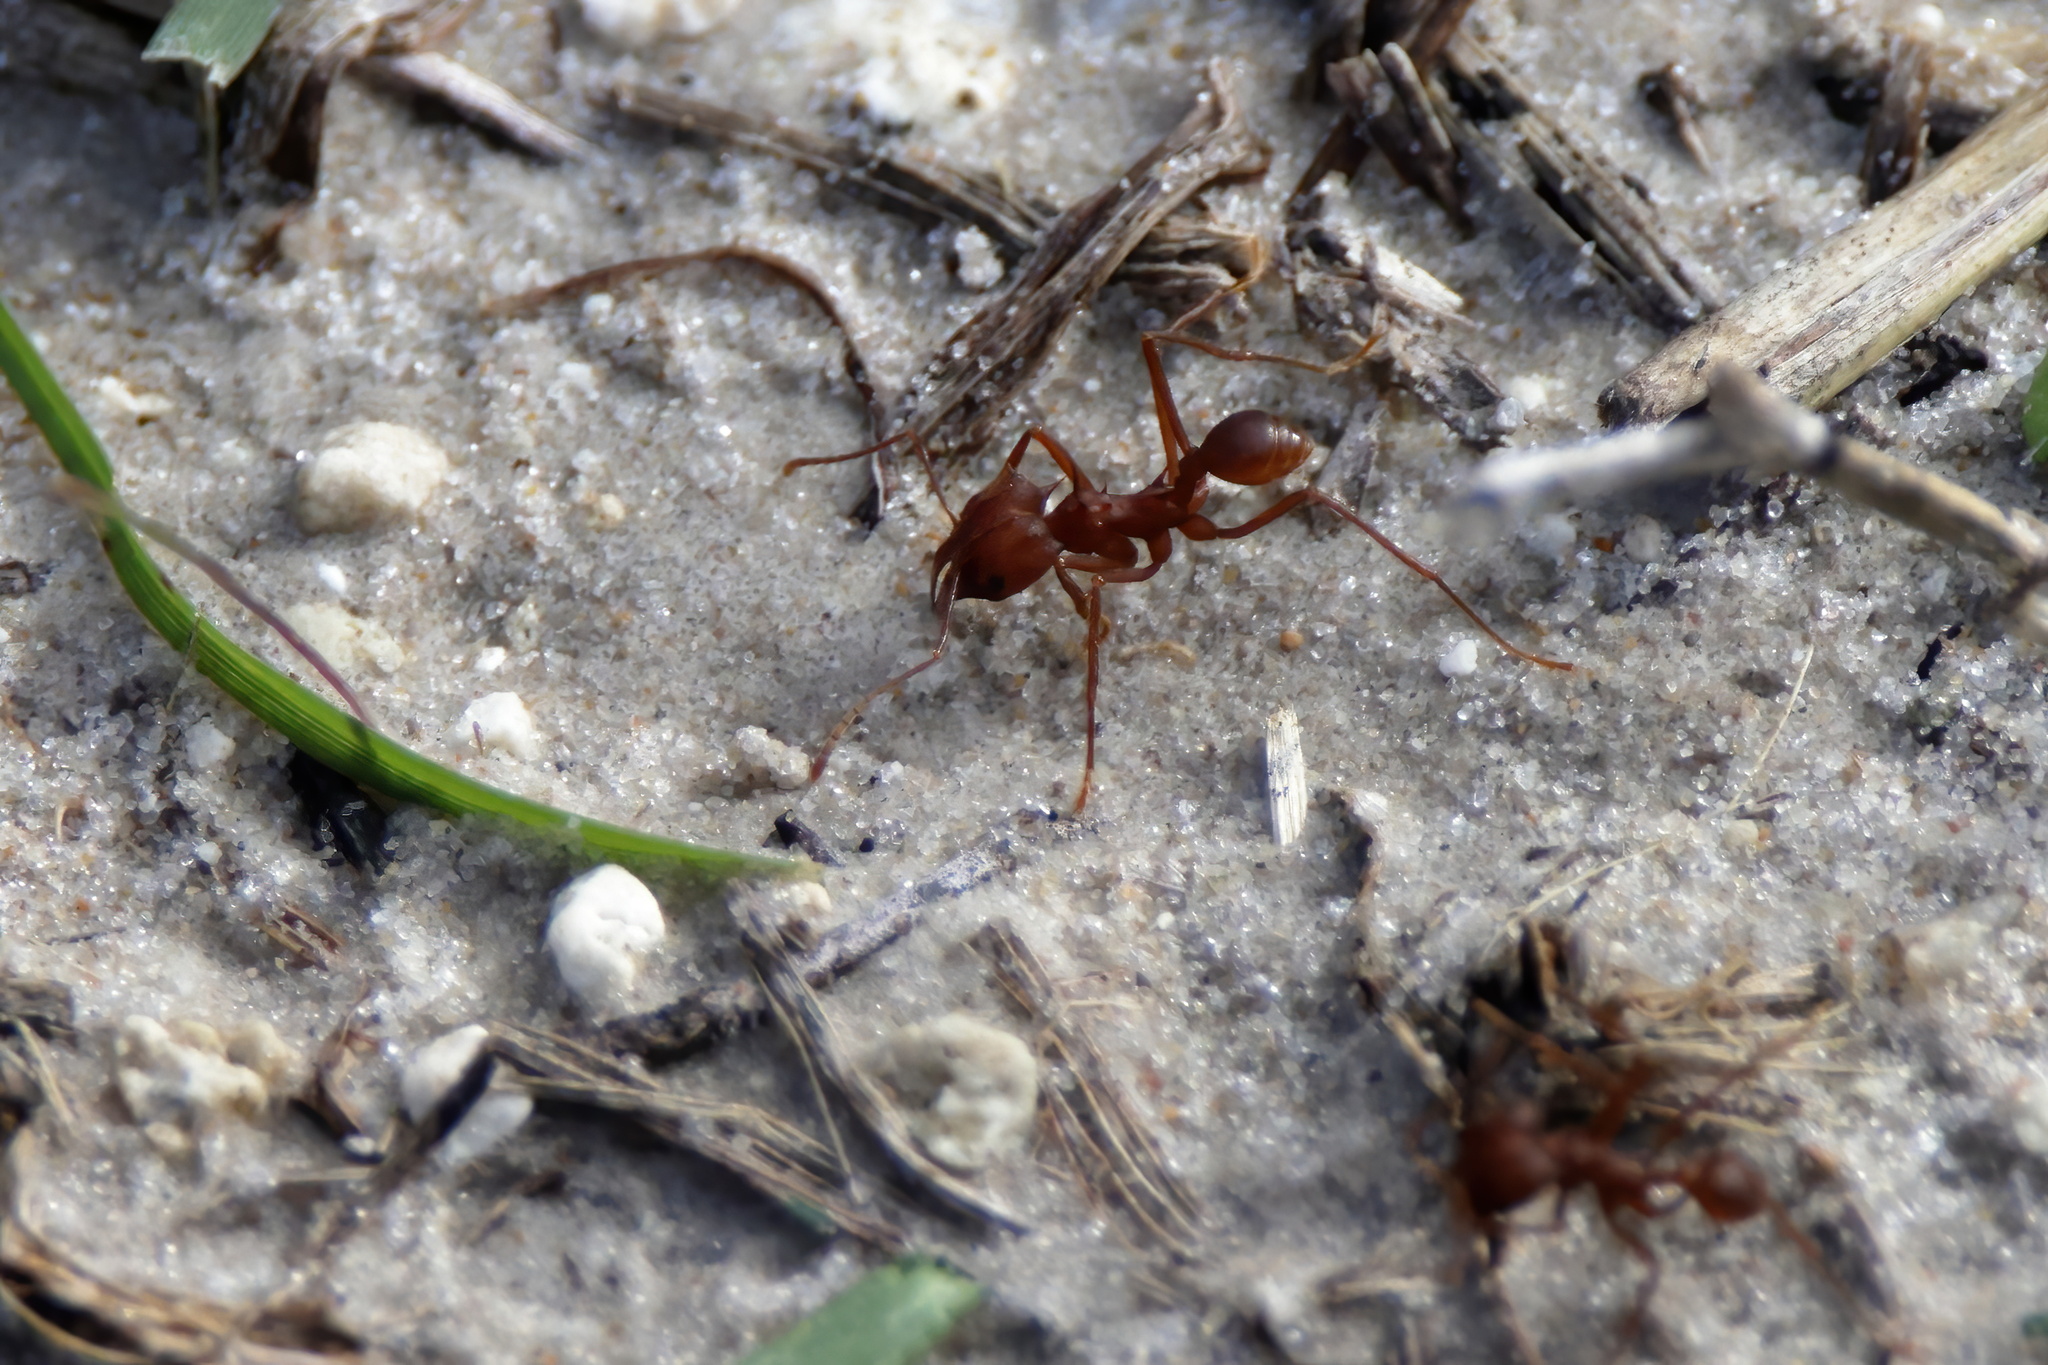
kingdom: Animalia
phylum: Arthropoda
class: Insecta
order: Hymenoptera
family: Formicidae
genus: Atta
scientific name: Atta texana
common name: Texas leafcutting ant
